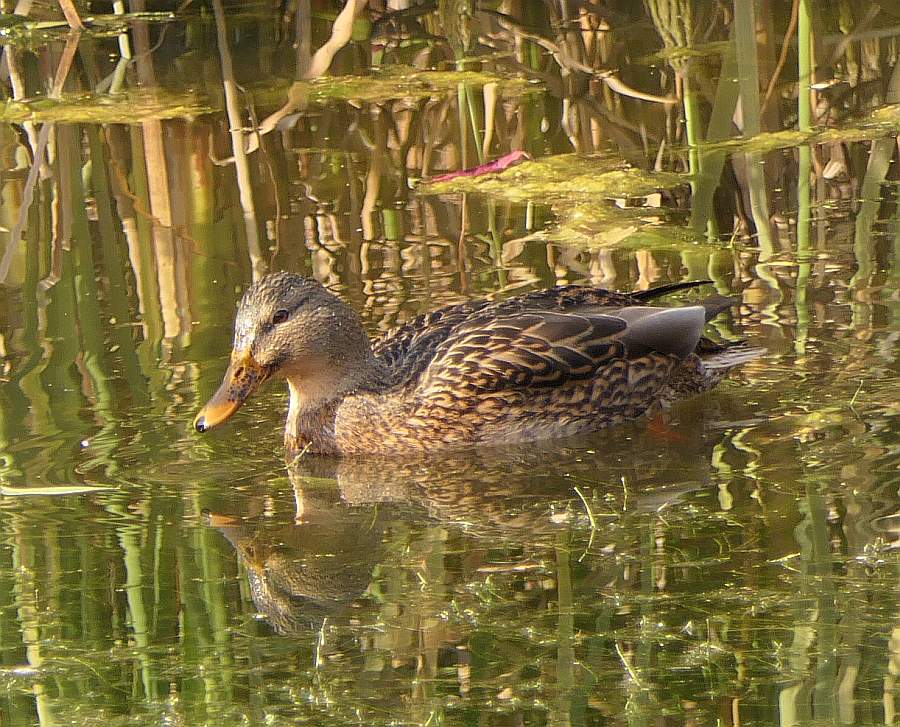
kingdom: Animalia
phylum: Chordata
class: Aves
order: Anseriformes
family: Anatidae
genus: Anas
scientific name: Anas platyrhynchos
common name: Mallard
